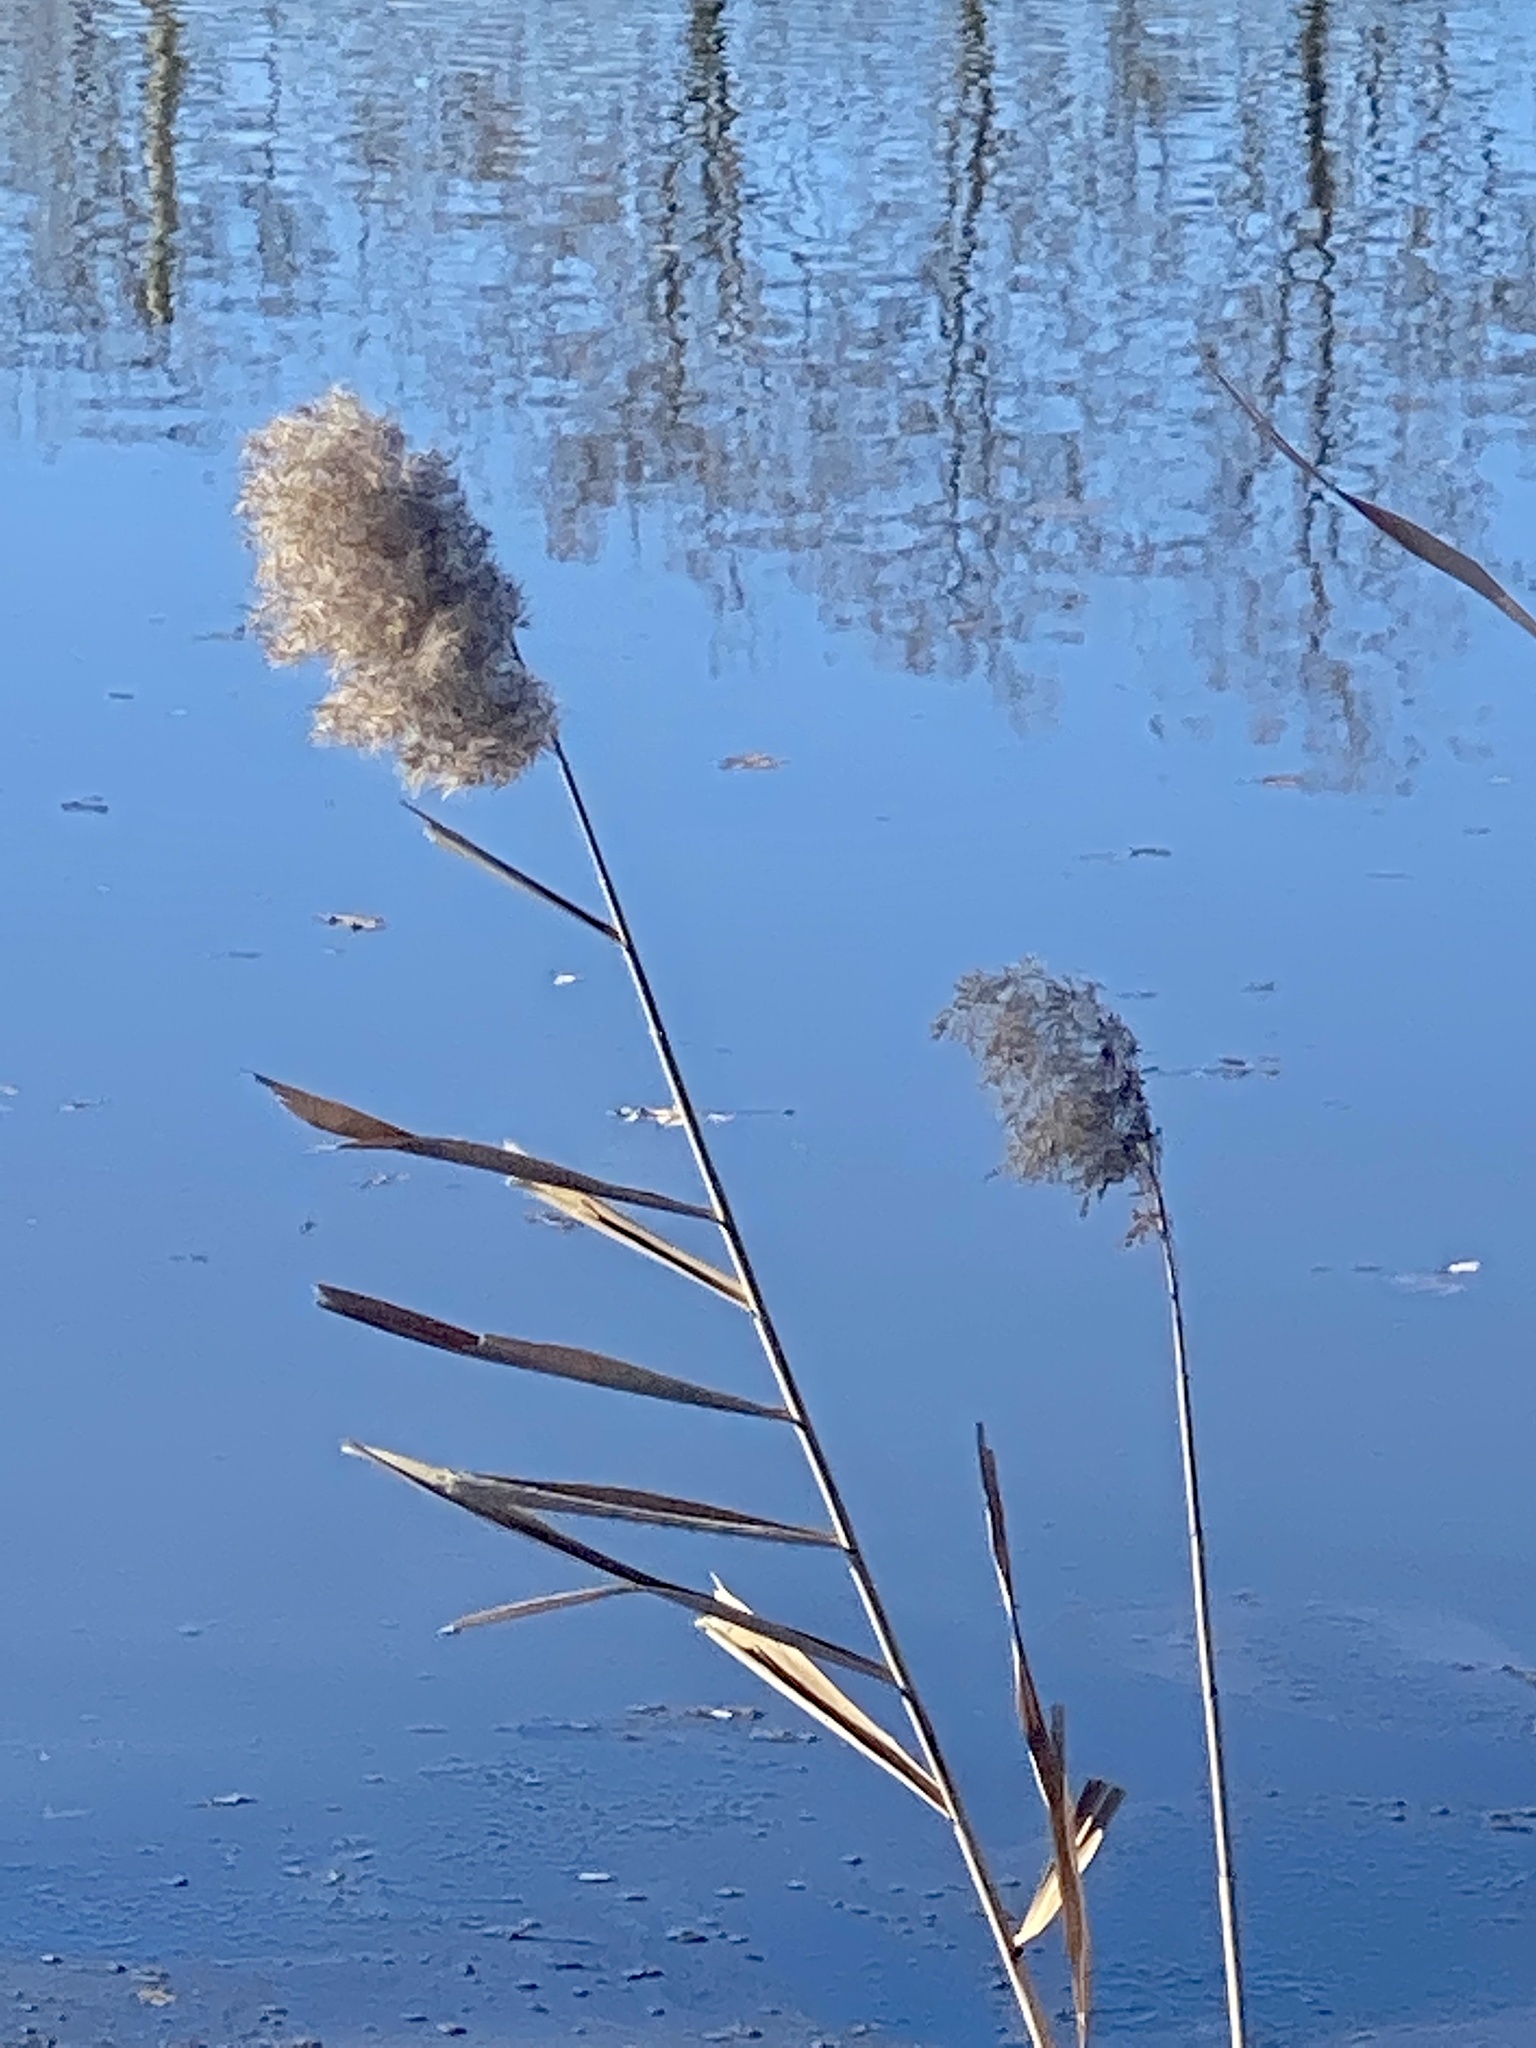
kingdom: Plantae
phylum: Tracheophyta
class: Liliopsida
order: Poales
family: Poaceae
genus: Phragmites
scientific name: Phragmites australis
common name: Common reed
